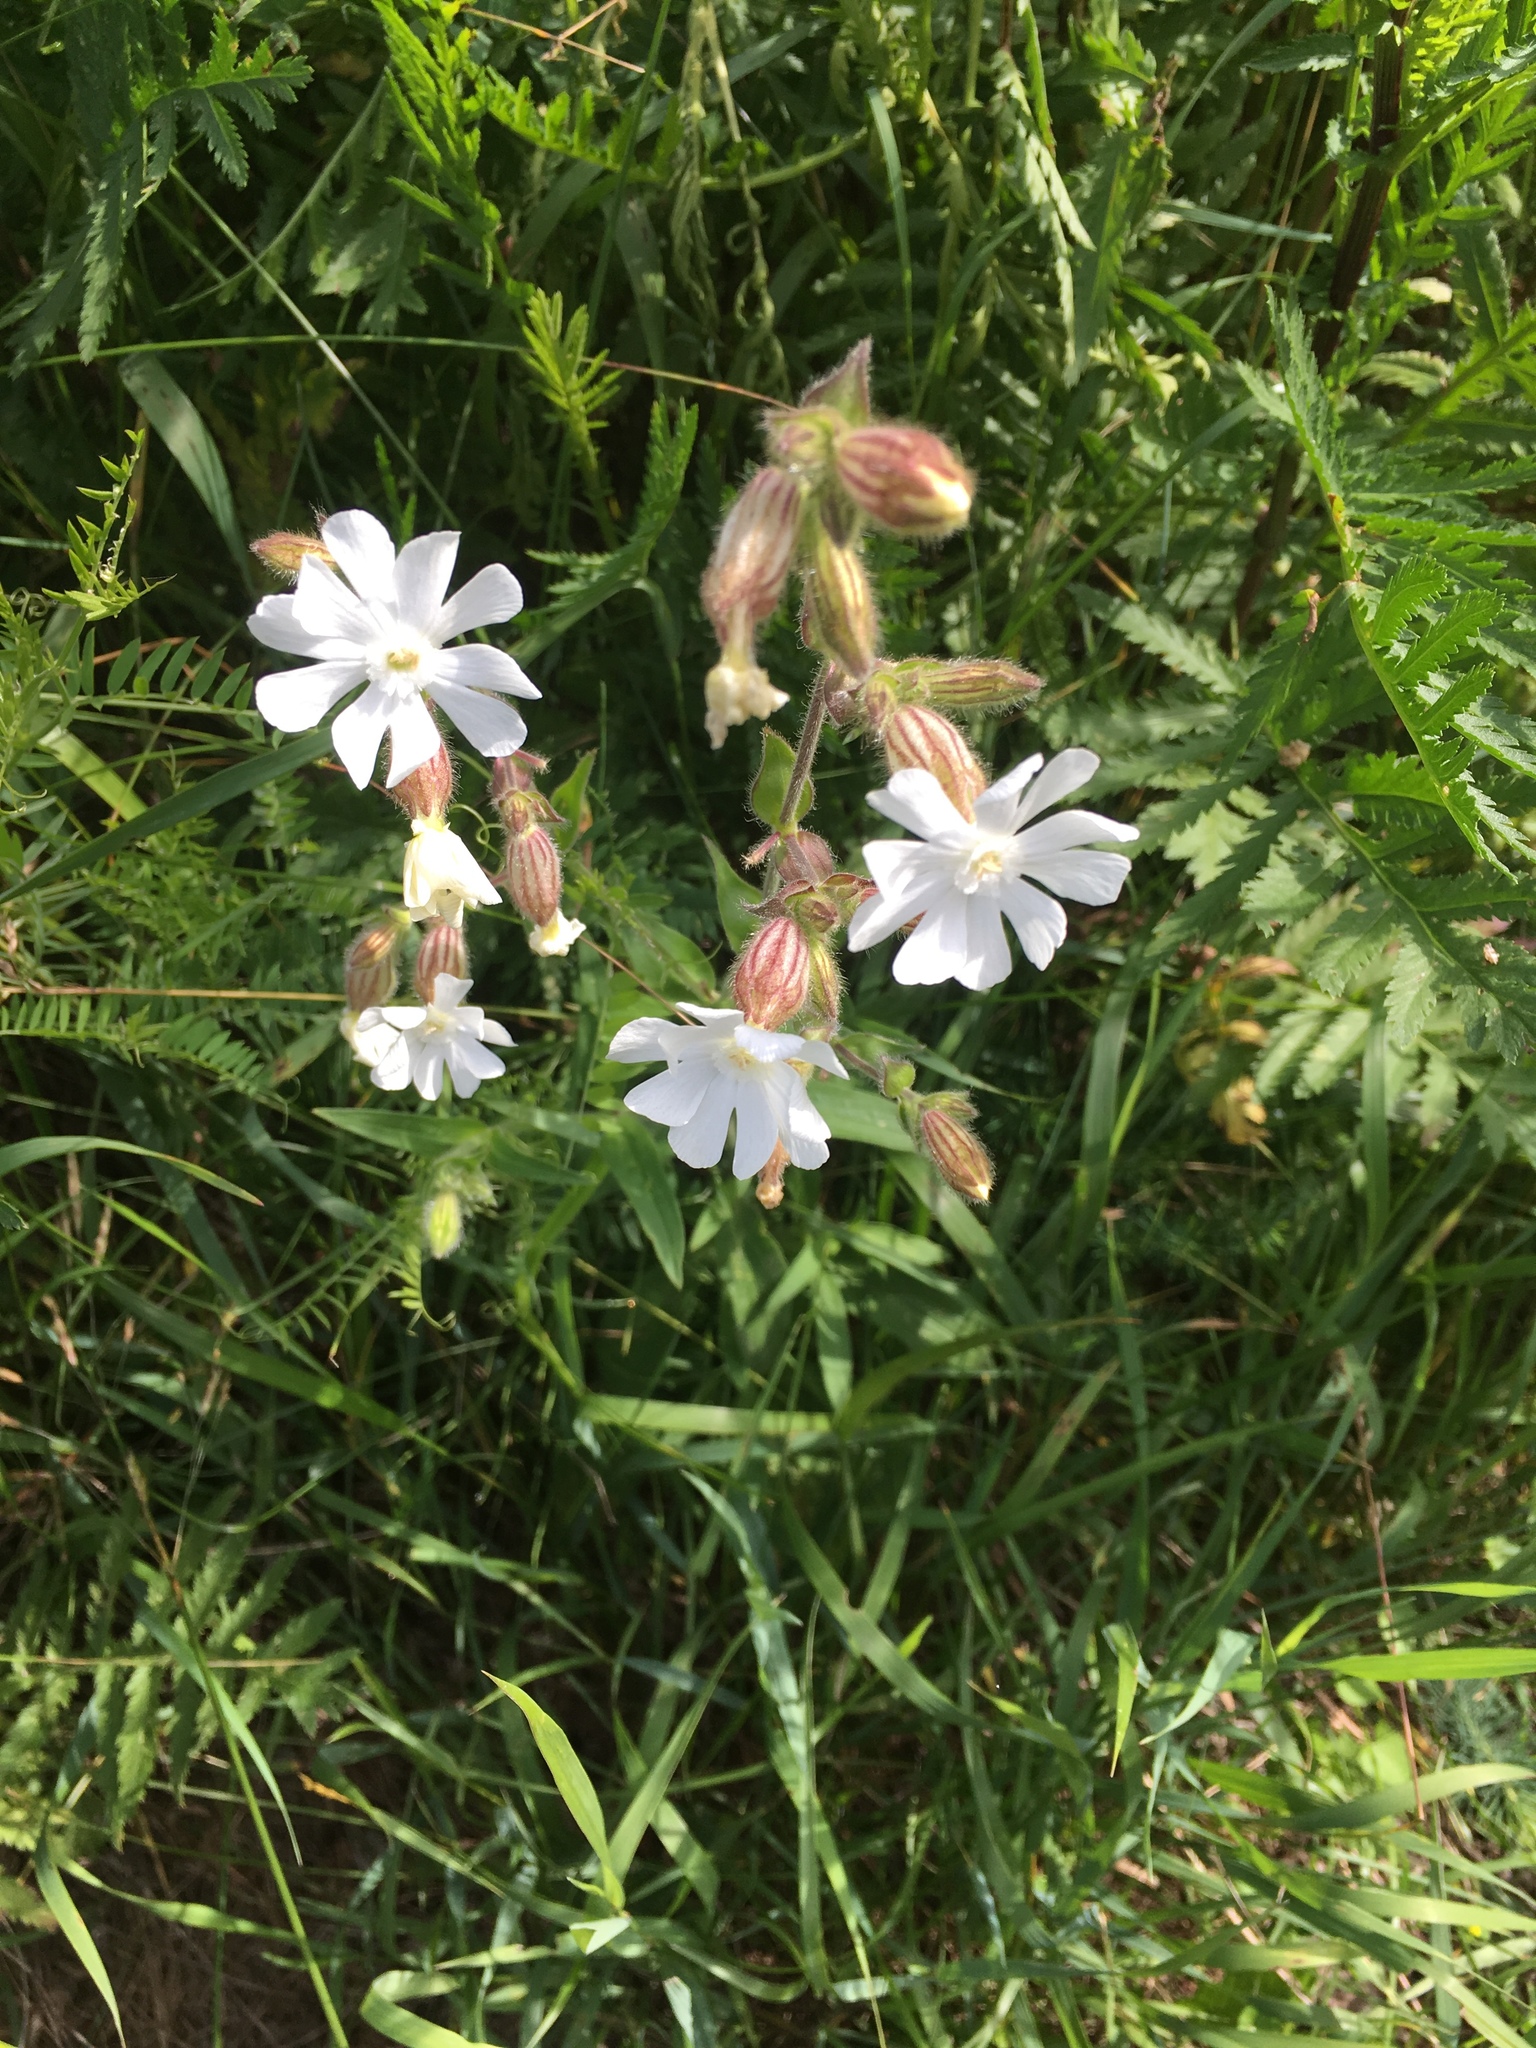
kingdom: Plantae
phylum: Tracheophyta
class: Magnoliopsida
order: Caryophyllales
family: Caryophyllaceae
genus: Silene
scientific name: Silene latifolia
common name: White campion
